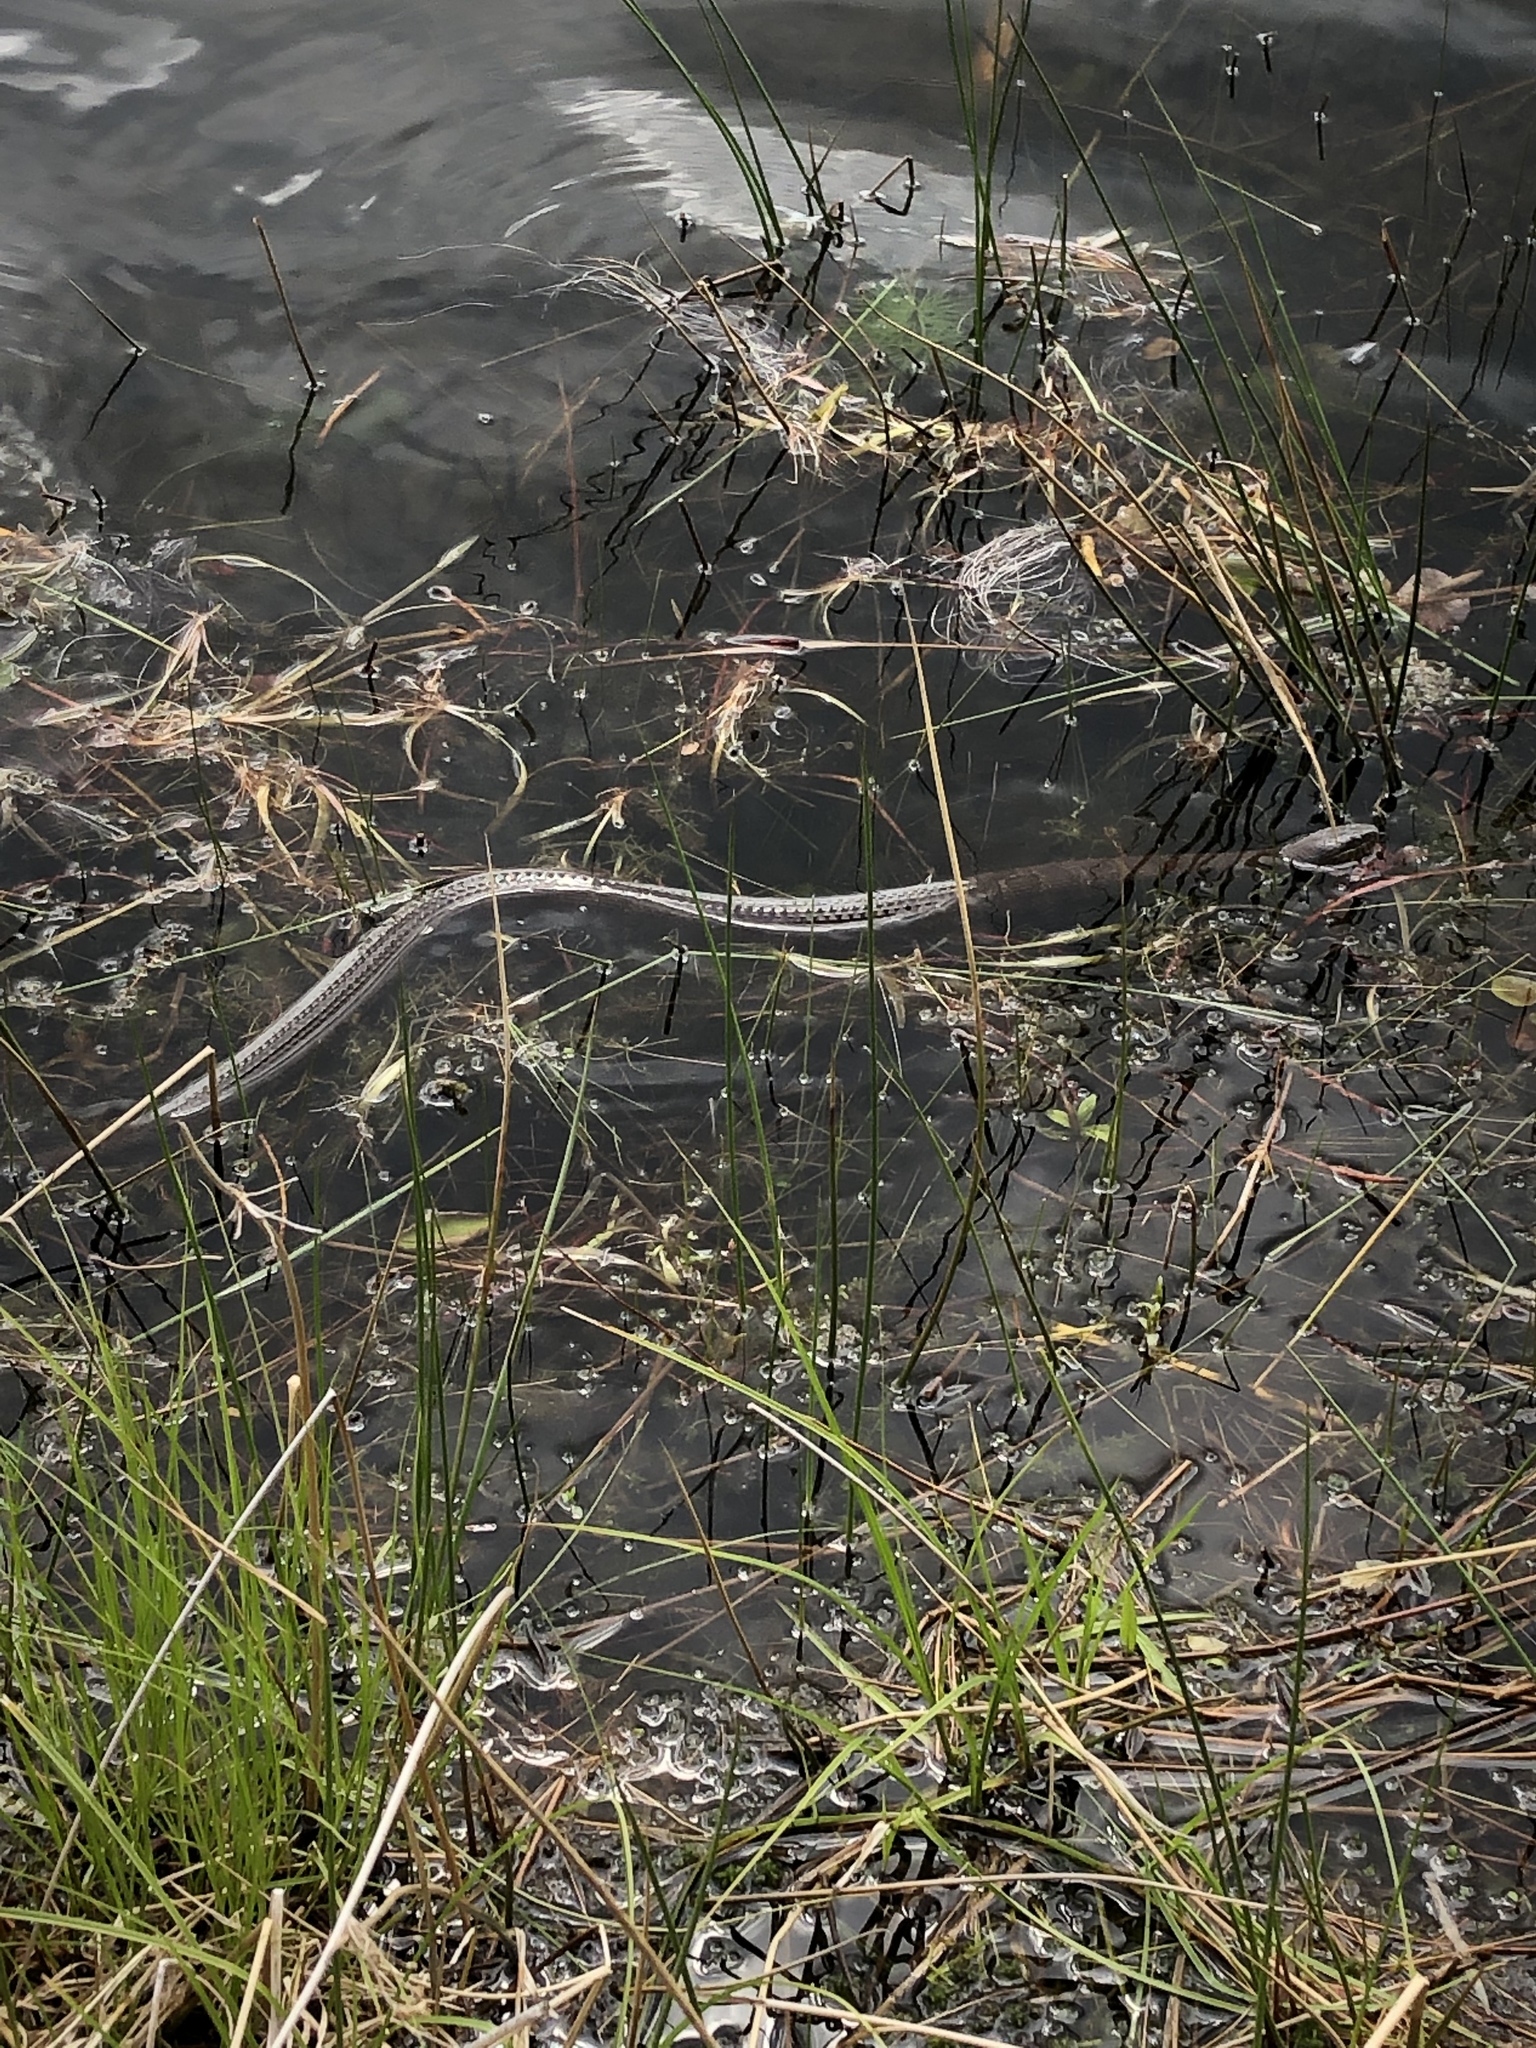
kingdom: Animalia
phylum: Chordata
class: Squamata
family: Colubridae
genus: Nerodia
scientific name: Nerodia sipedon
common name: Northern water snake
